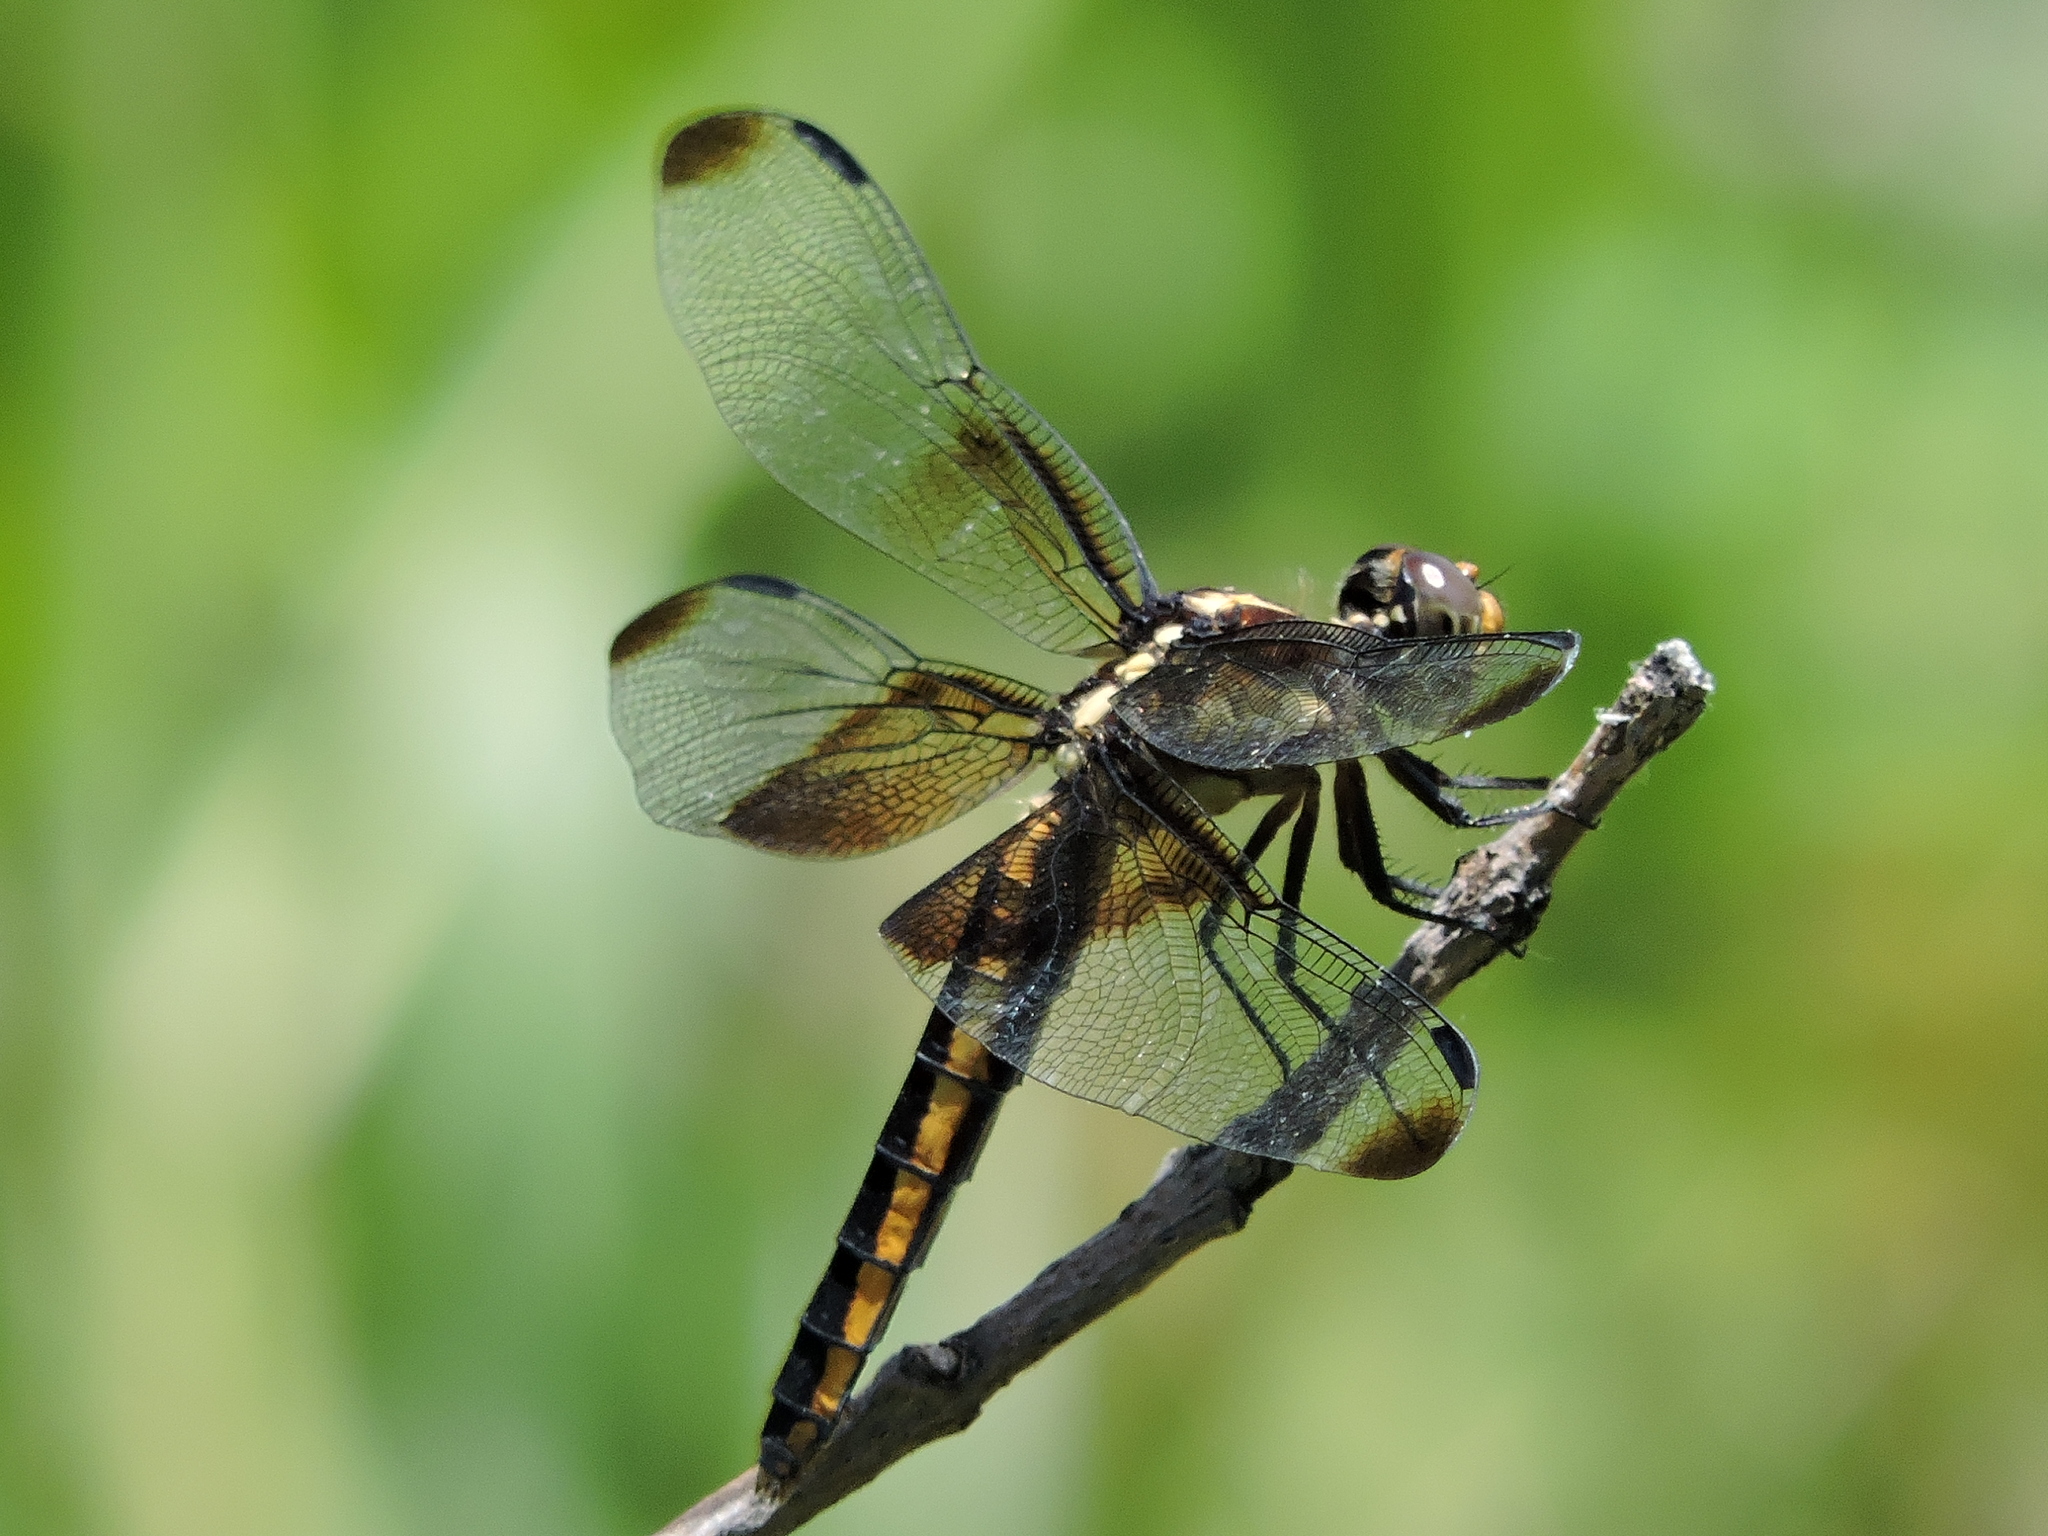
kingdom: Animalia
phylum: Arthropoda
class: Insecta
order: Odonata
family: Libellulidae
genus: Libellula
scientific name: Libellula luctuosa
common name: Widow skimmer
